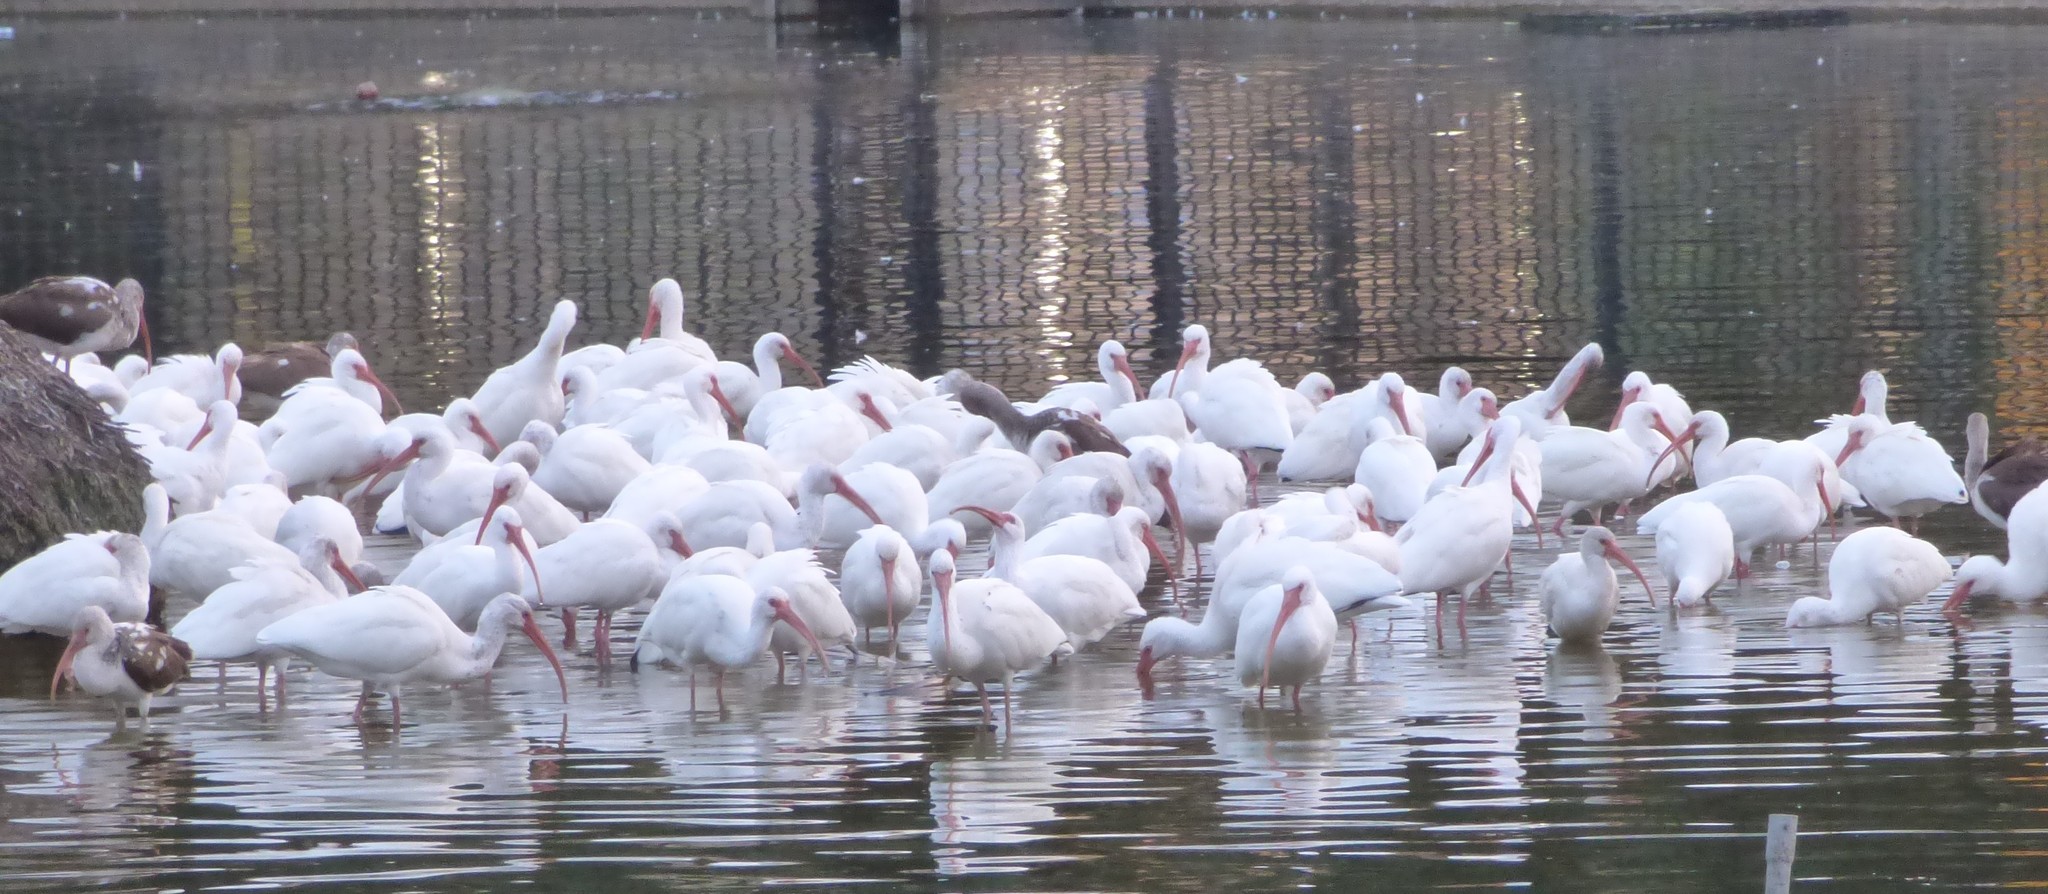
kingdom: Animalia
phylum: Chordata
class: Aves
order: Pelecaniformes
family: Threskiornithidae
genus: Eudocimus
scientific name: Eudocimus albus
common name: White ibis
